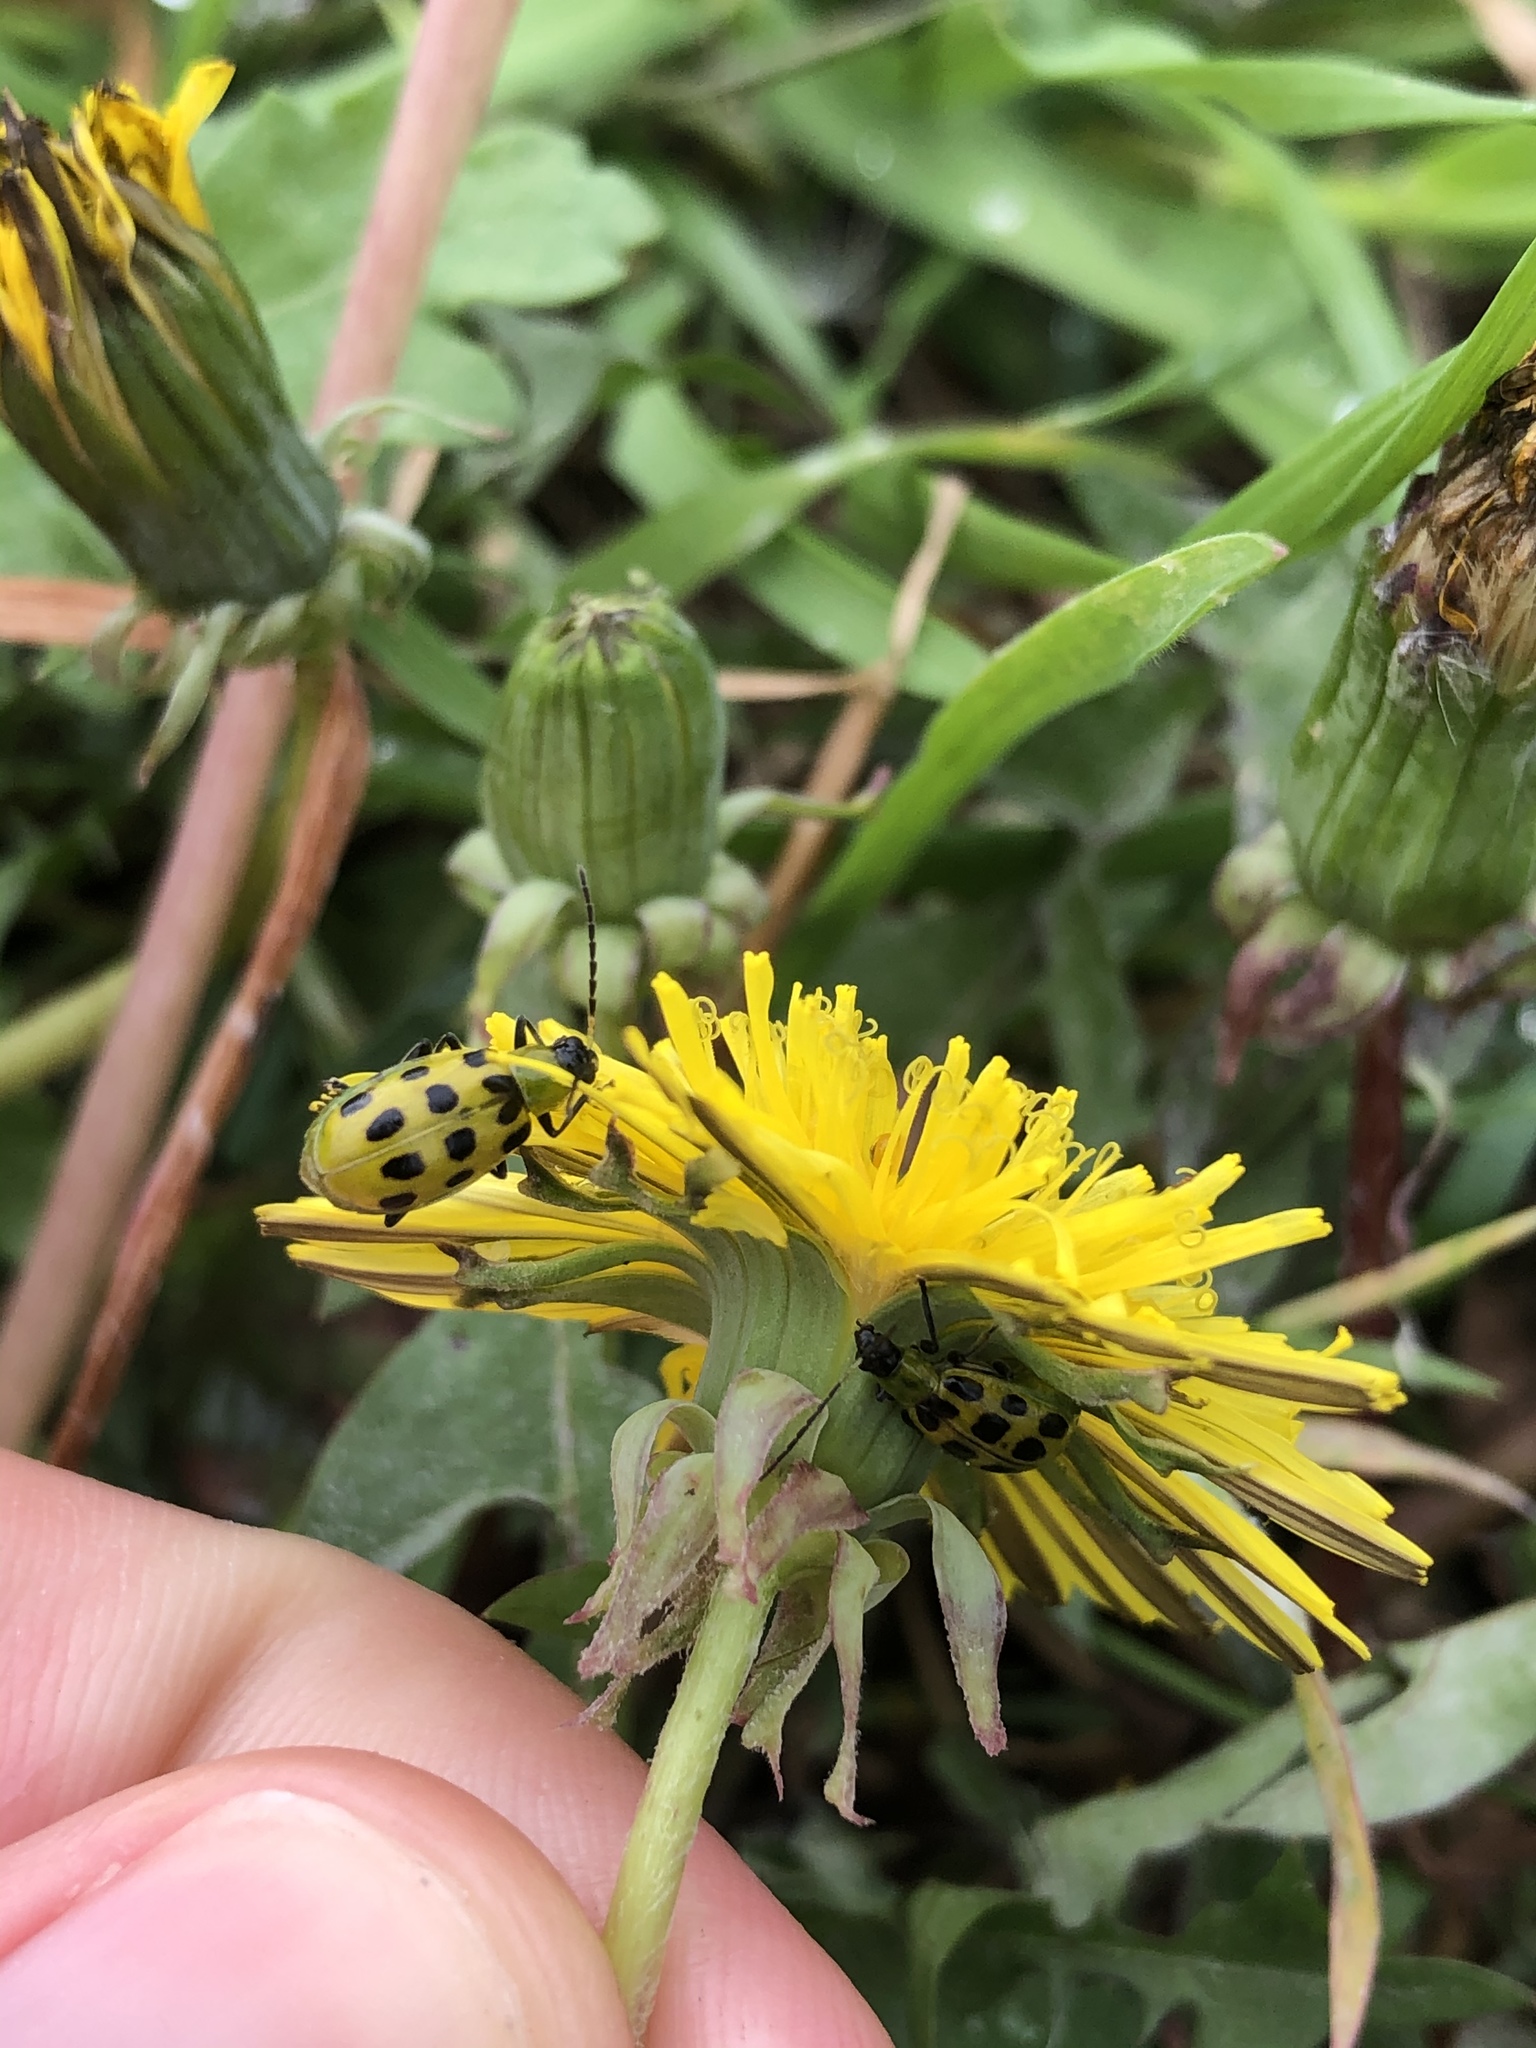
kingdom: Animalia
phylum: Arthropoda
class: Insecta
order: Coleoptera
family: Chrysomelidae
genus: Diabrotica
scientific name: Diabrotica undecimpunctata
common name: Spotted cucumber beetle
